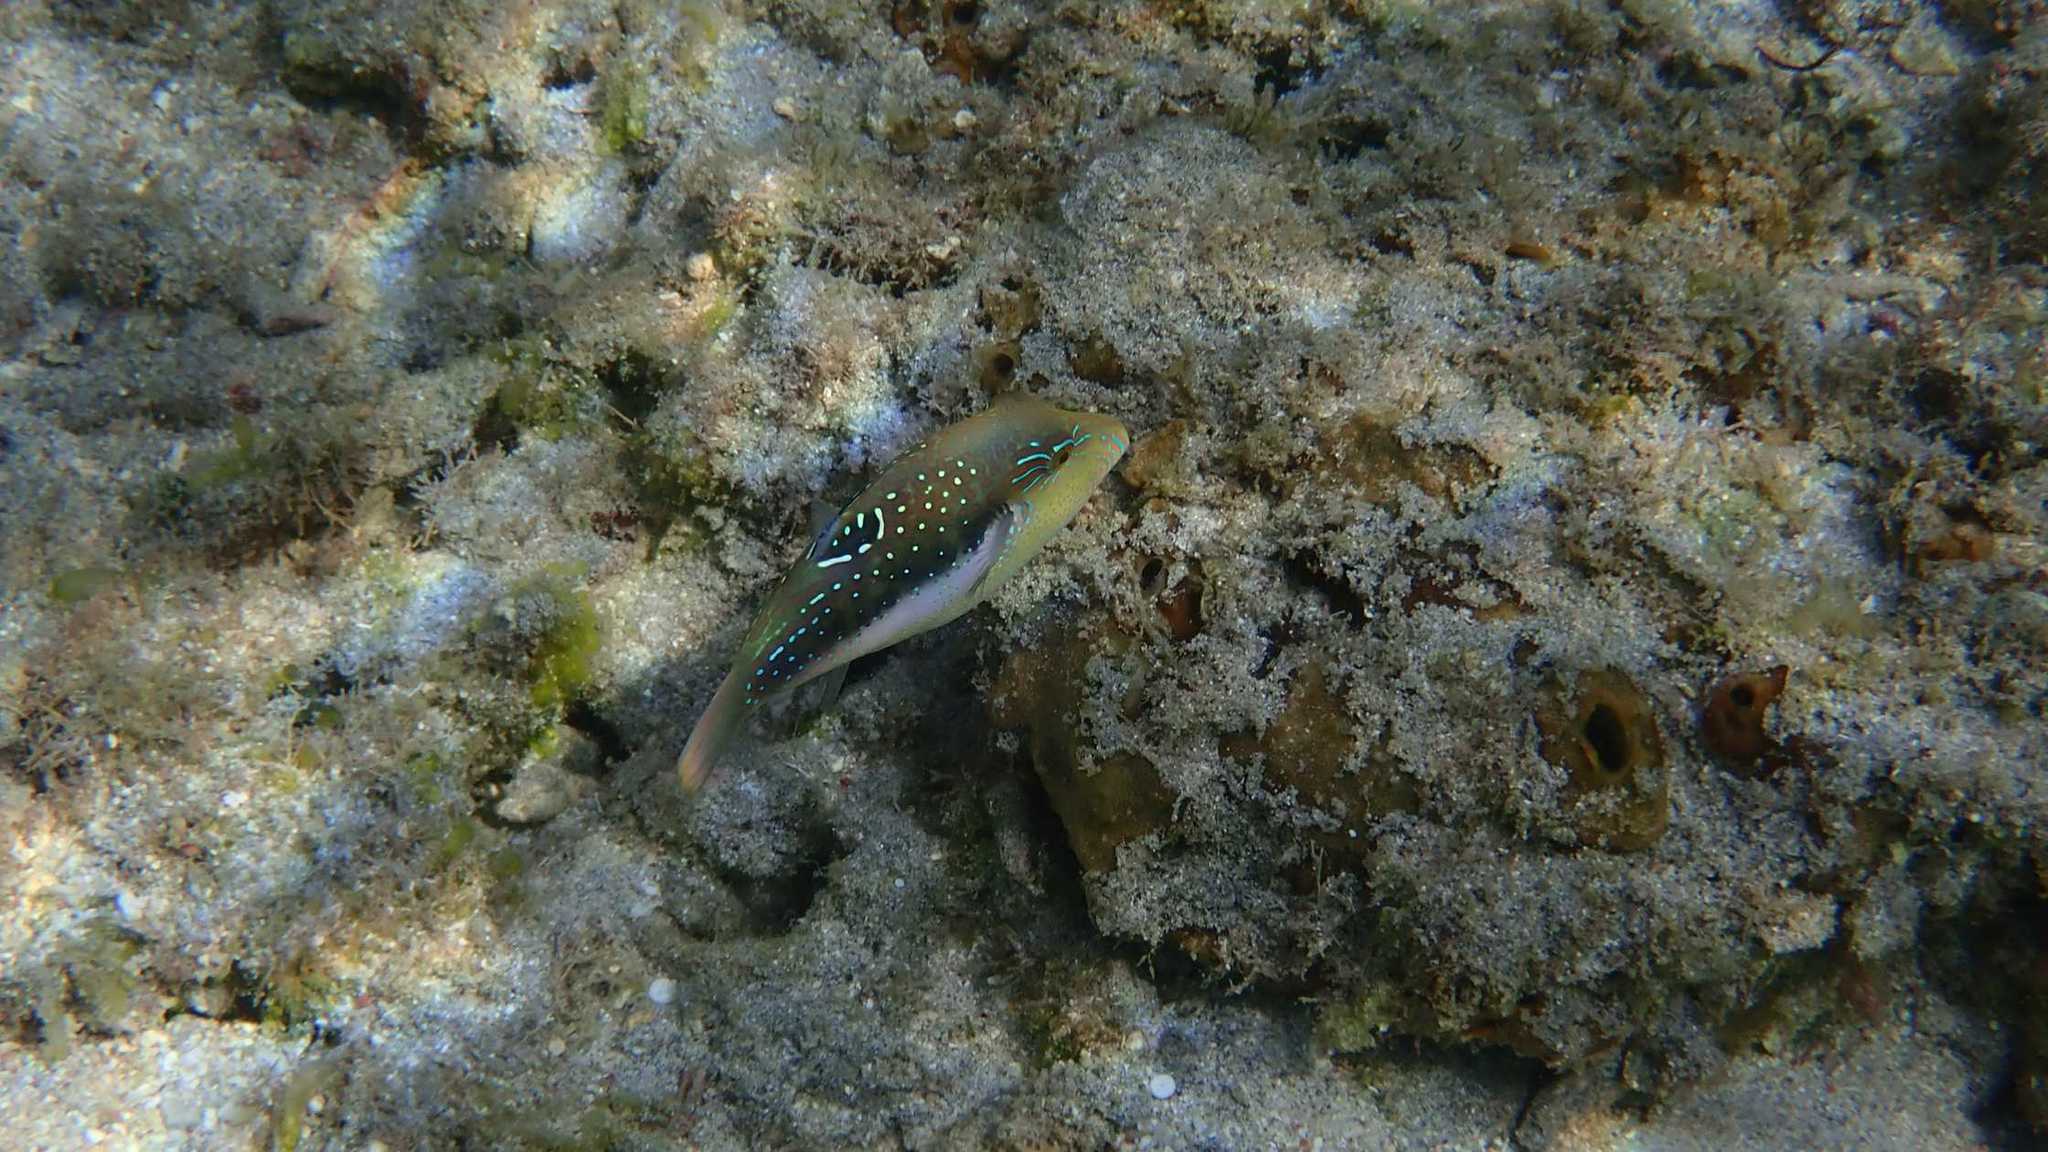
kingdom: Animalia
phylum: Chordata
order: Tetraodontiformes
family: Tetraodontidae
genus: Canthigaster
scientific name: Canthigaster bennetti
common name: Bennett's pufferfish
